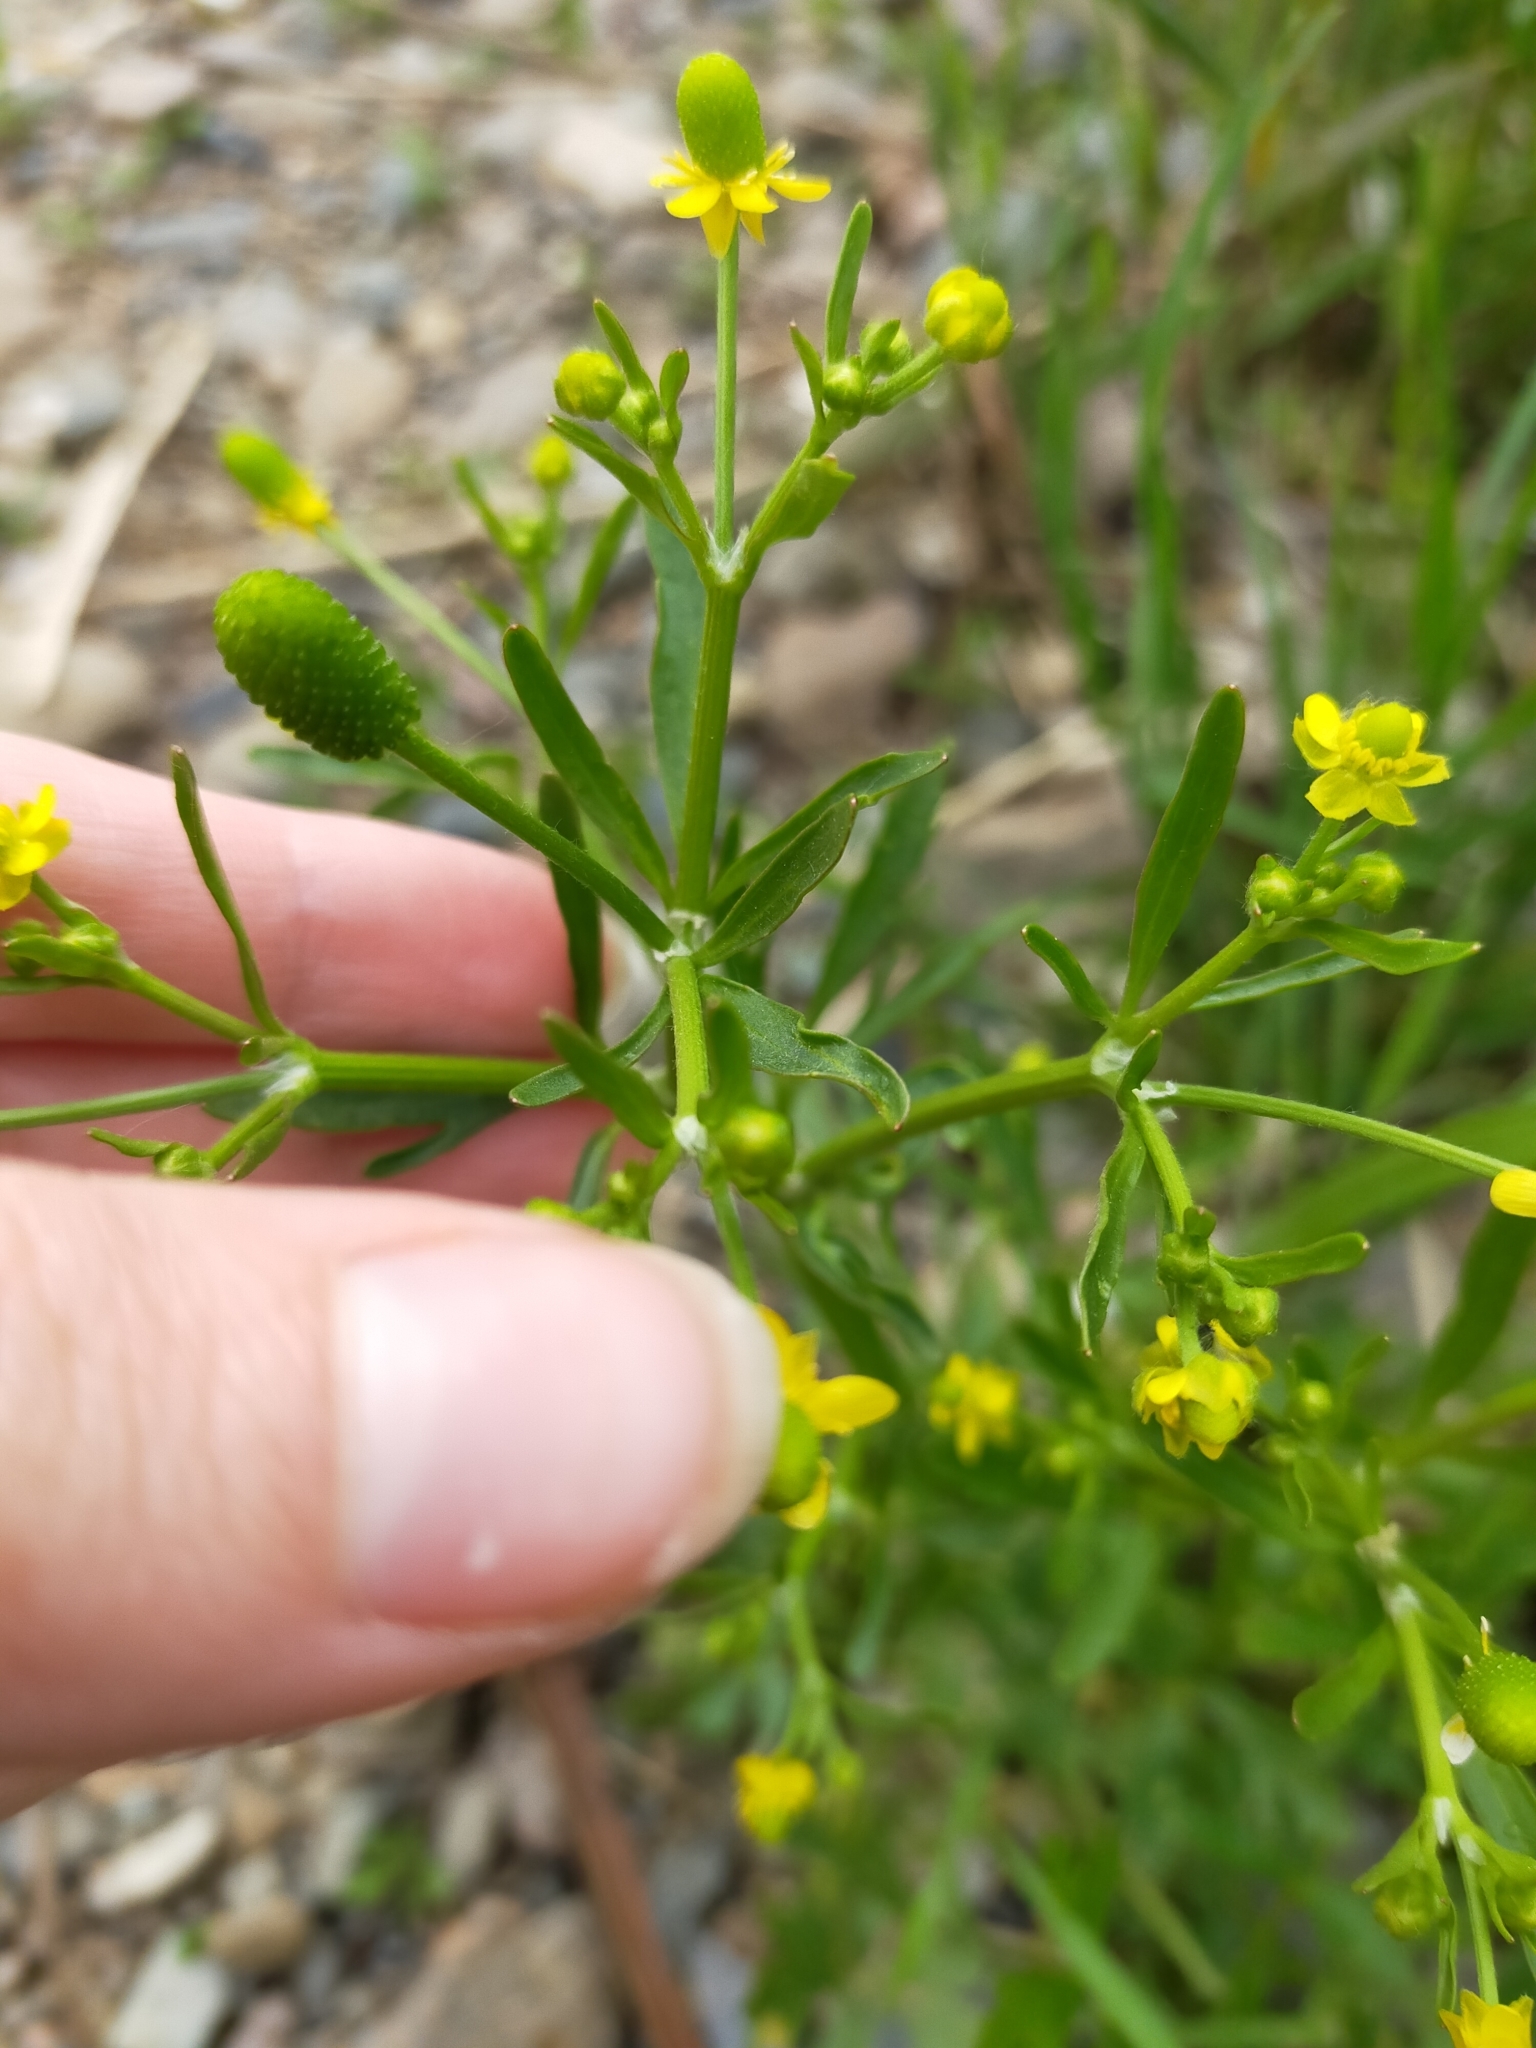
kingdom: Plantae
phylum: Tracheophyta
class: Magnoliopsida
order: Ranunculales
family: Ranunculaceae
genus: Ranunculus
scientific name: Ranunculus sceleratus
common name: Celery-leaved buttercup
